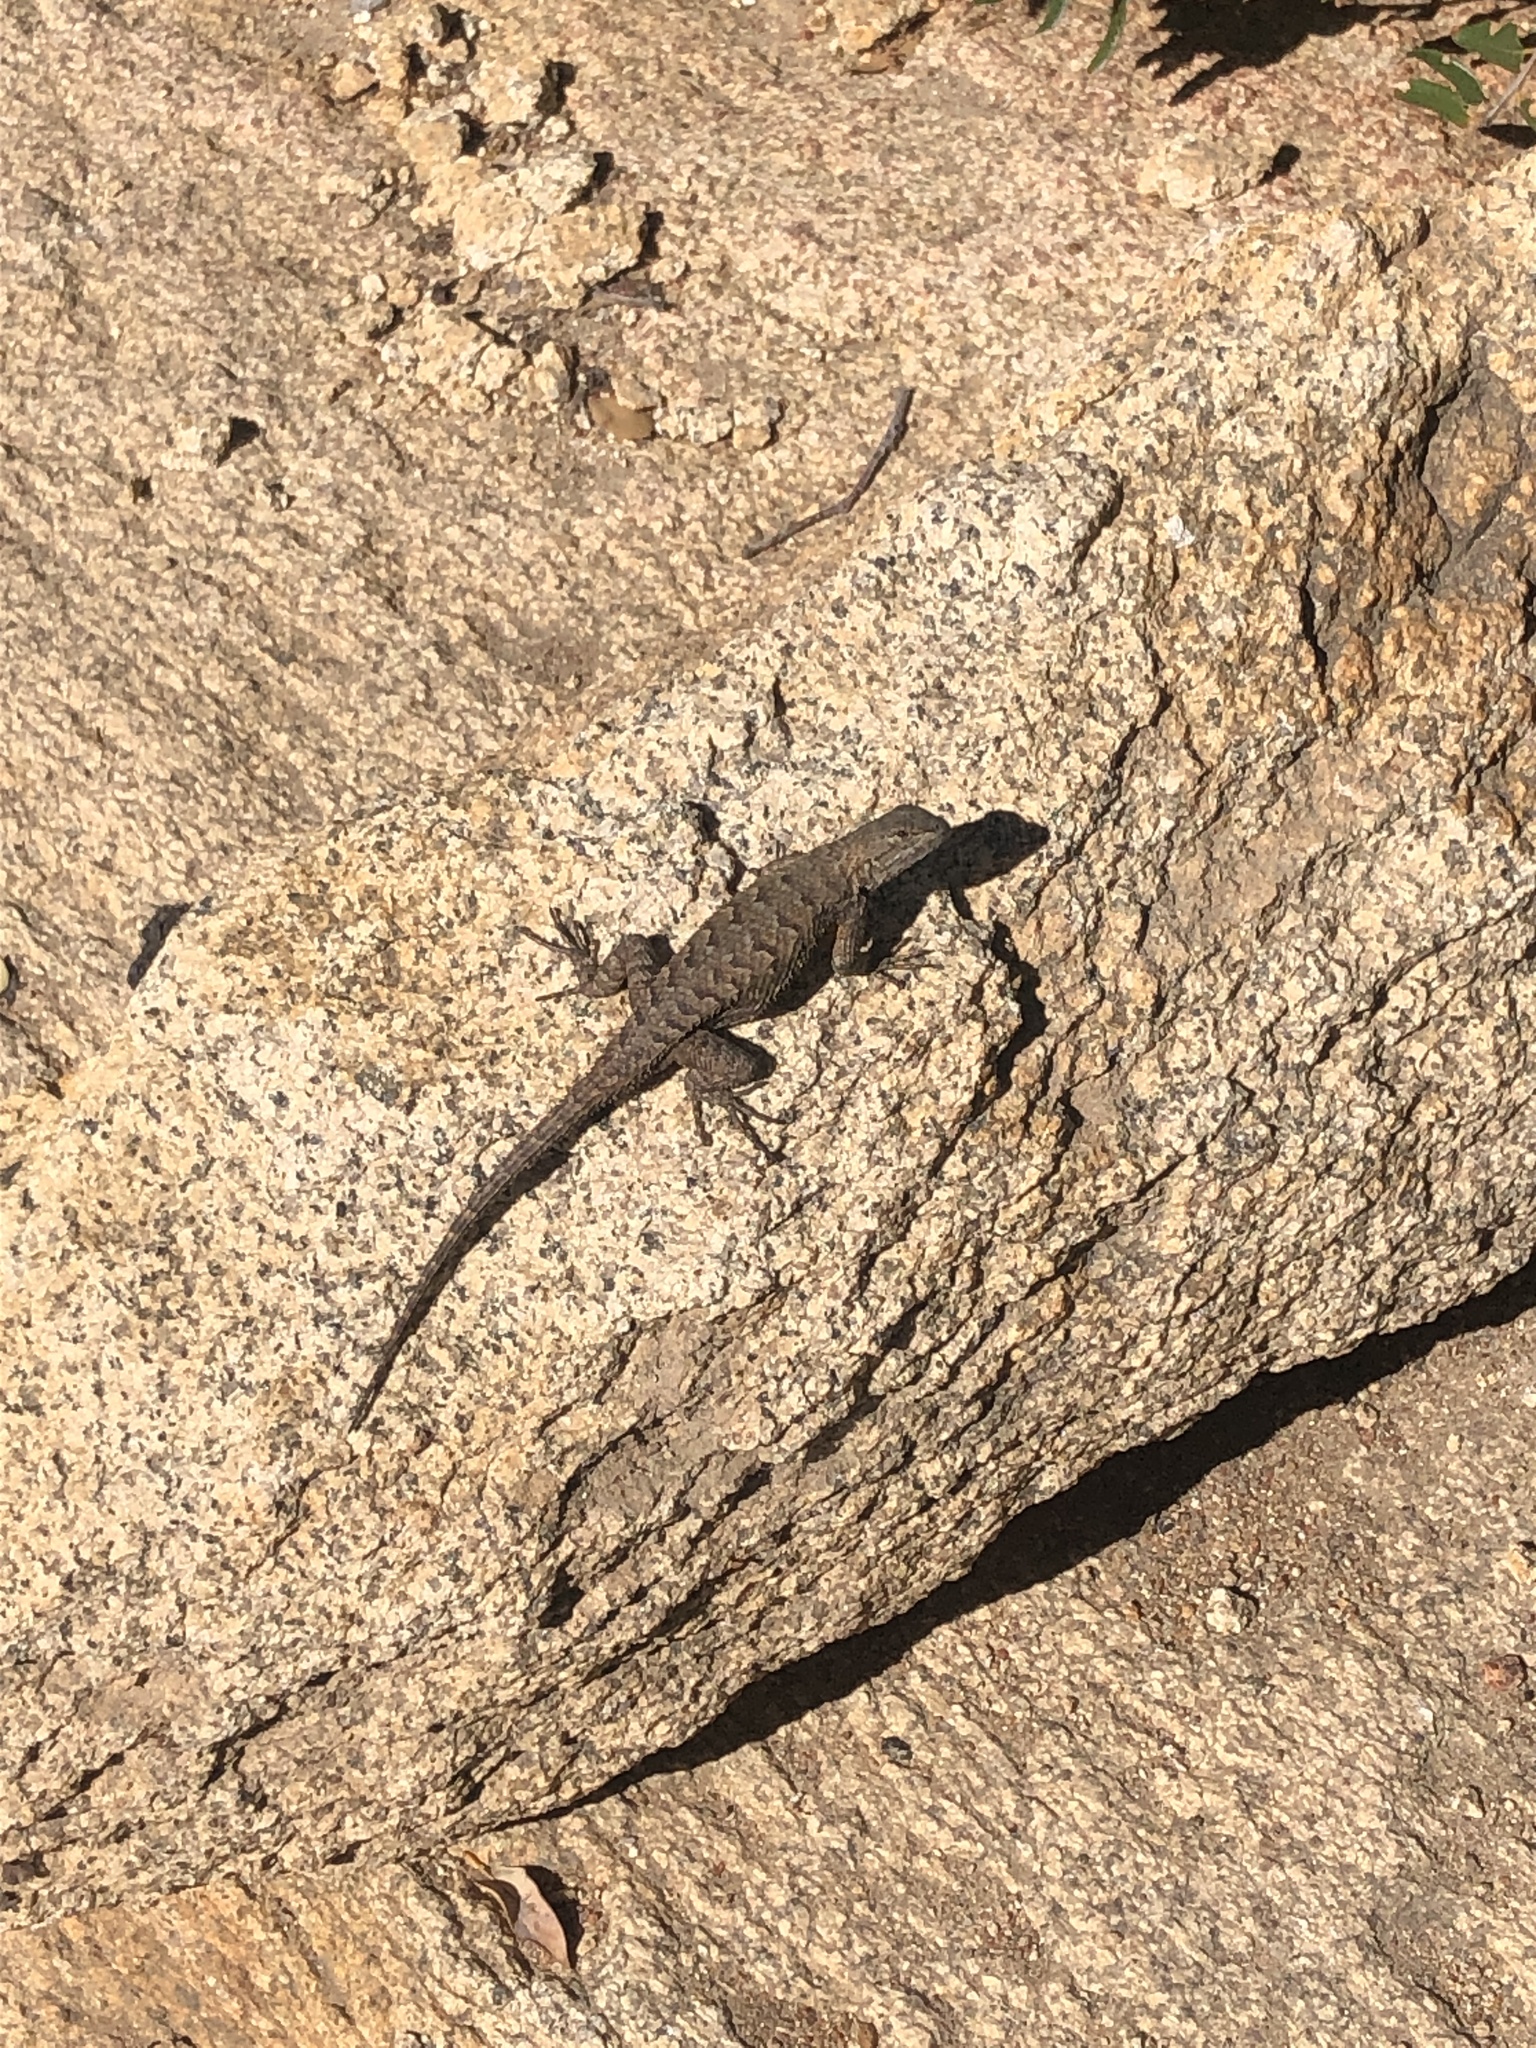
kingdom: Animalia
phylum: Chordata
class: Squamata
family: Phrynosomatidae
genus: Sceloporus
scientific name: Sceloporus occidentalis
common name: Western fence lizard
